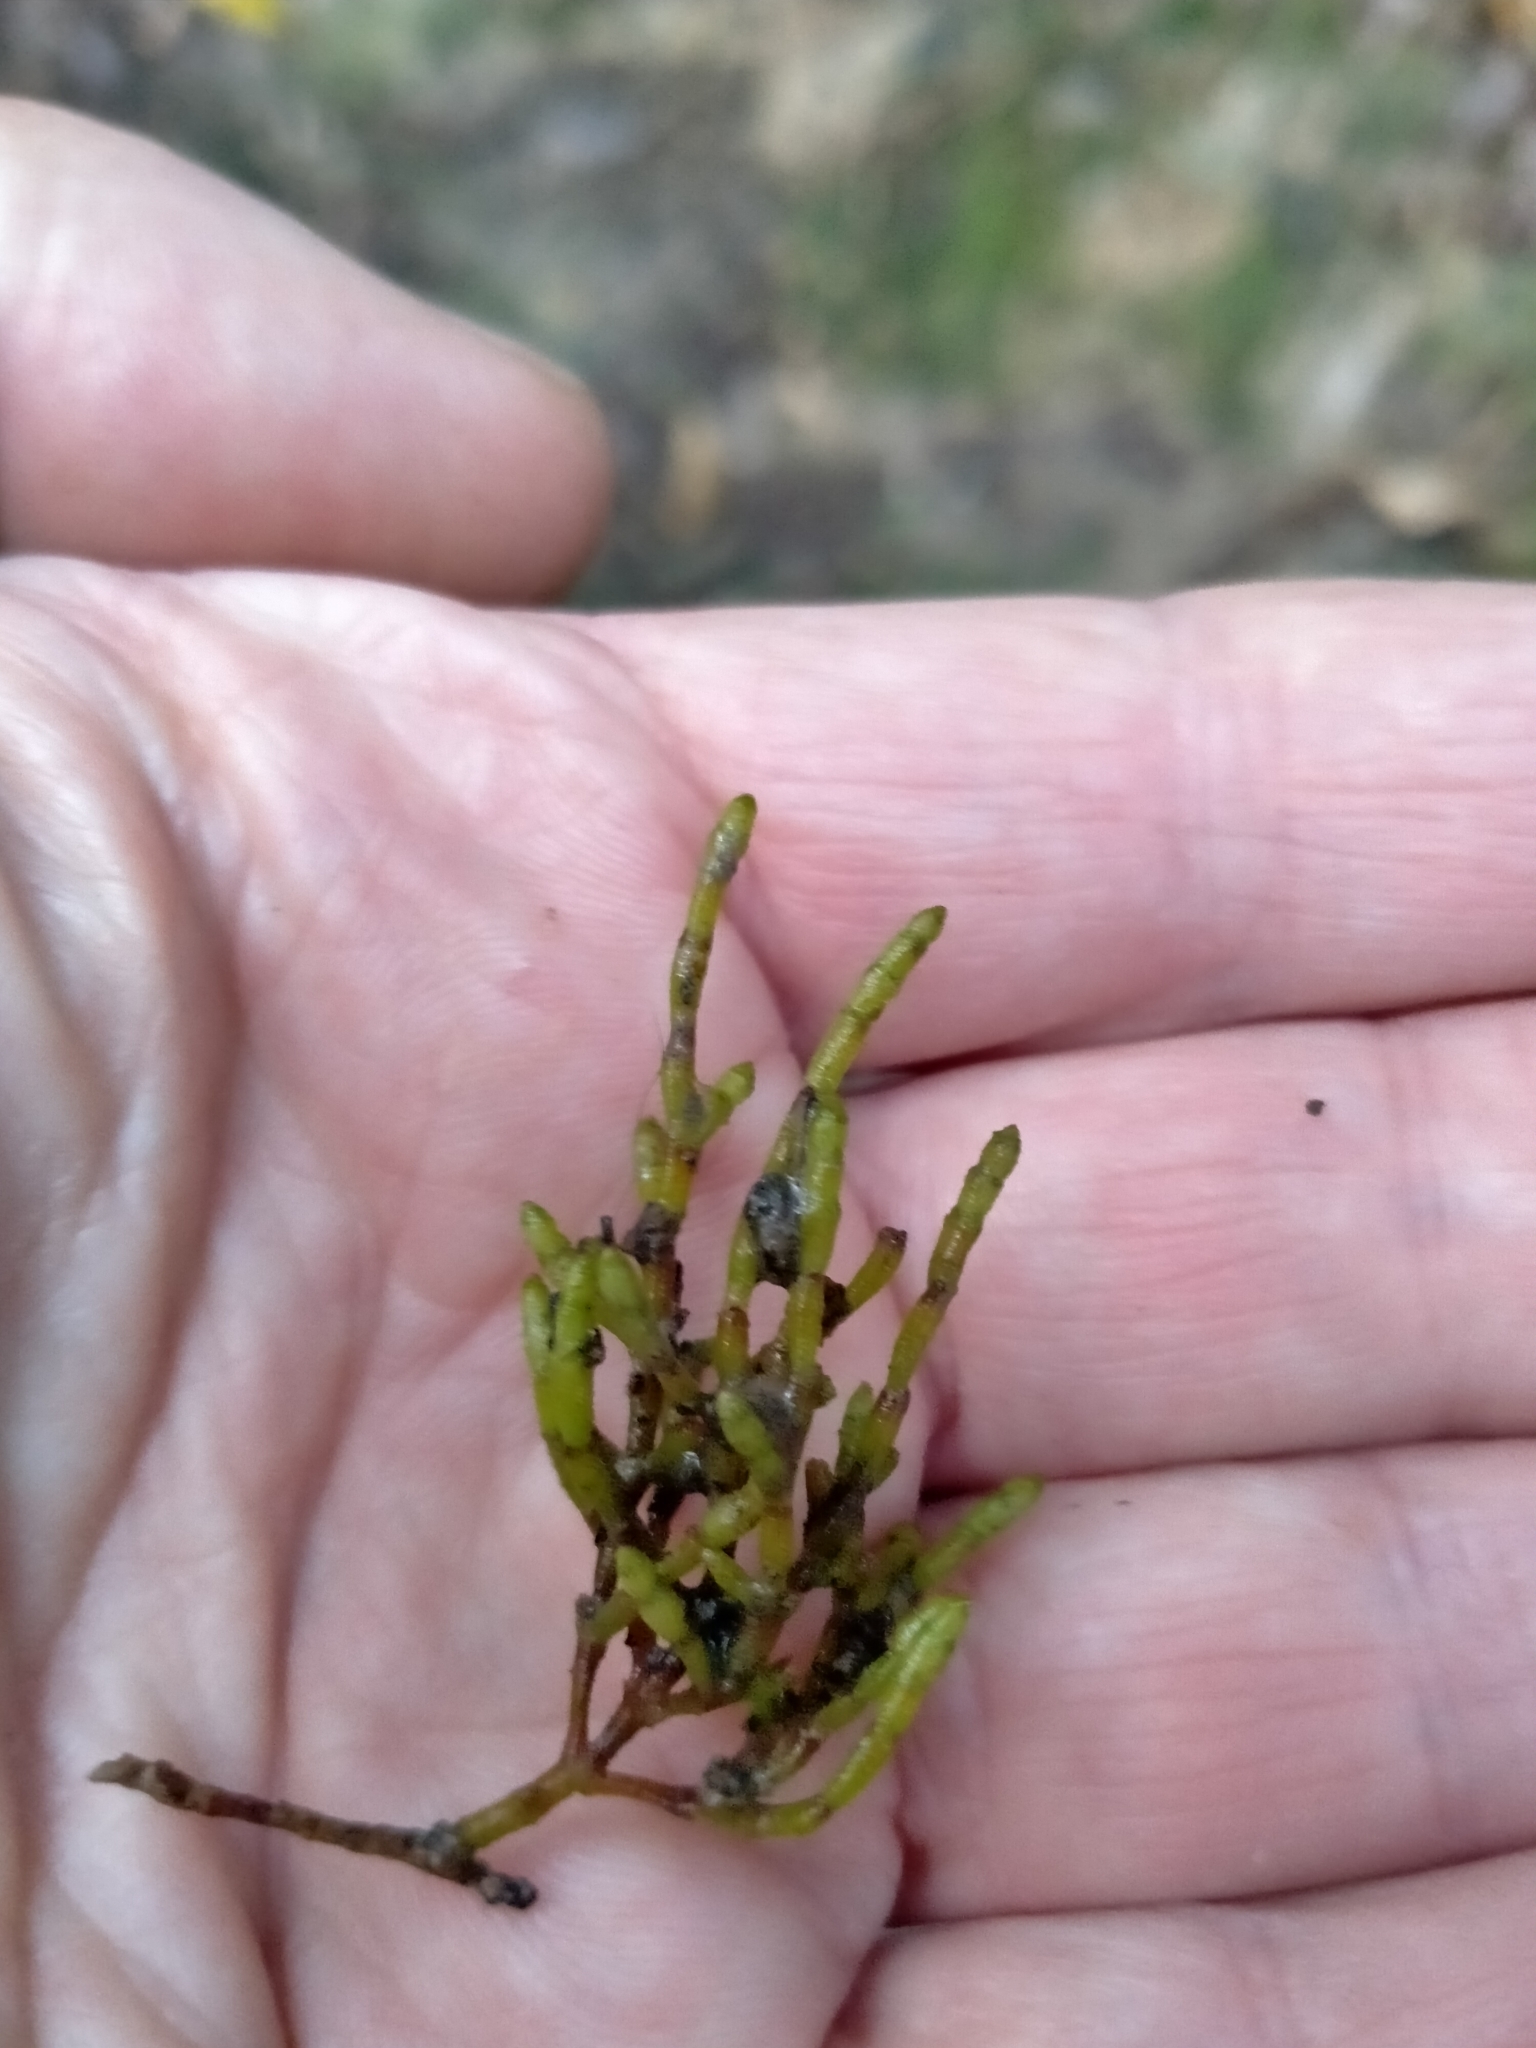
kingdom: Plantae
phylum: Tracheophyta
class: Magnoliopsida
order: Santalales
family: Viscaceae
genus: Korthalsella
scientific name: Korthalsella salicornioides
